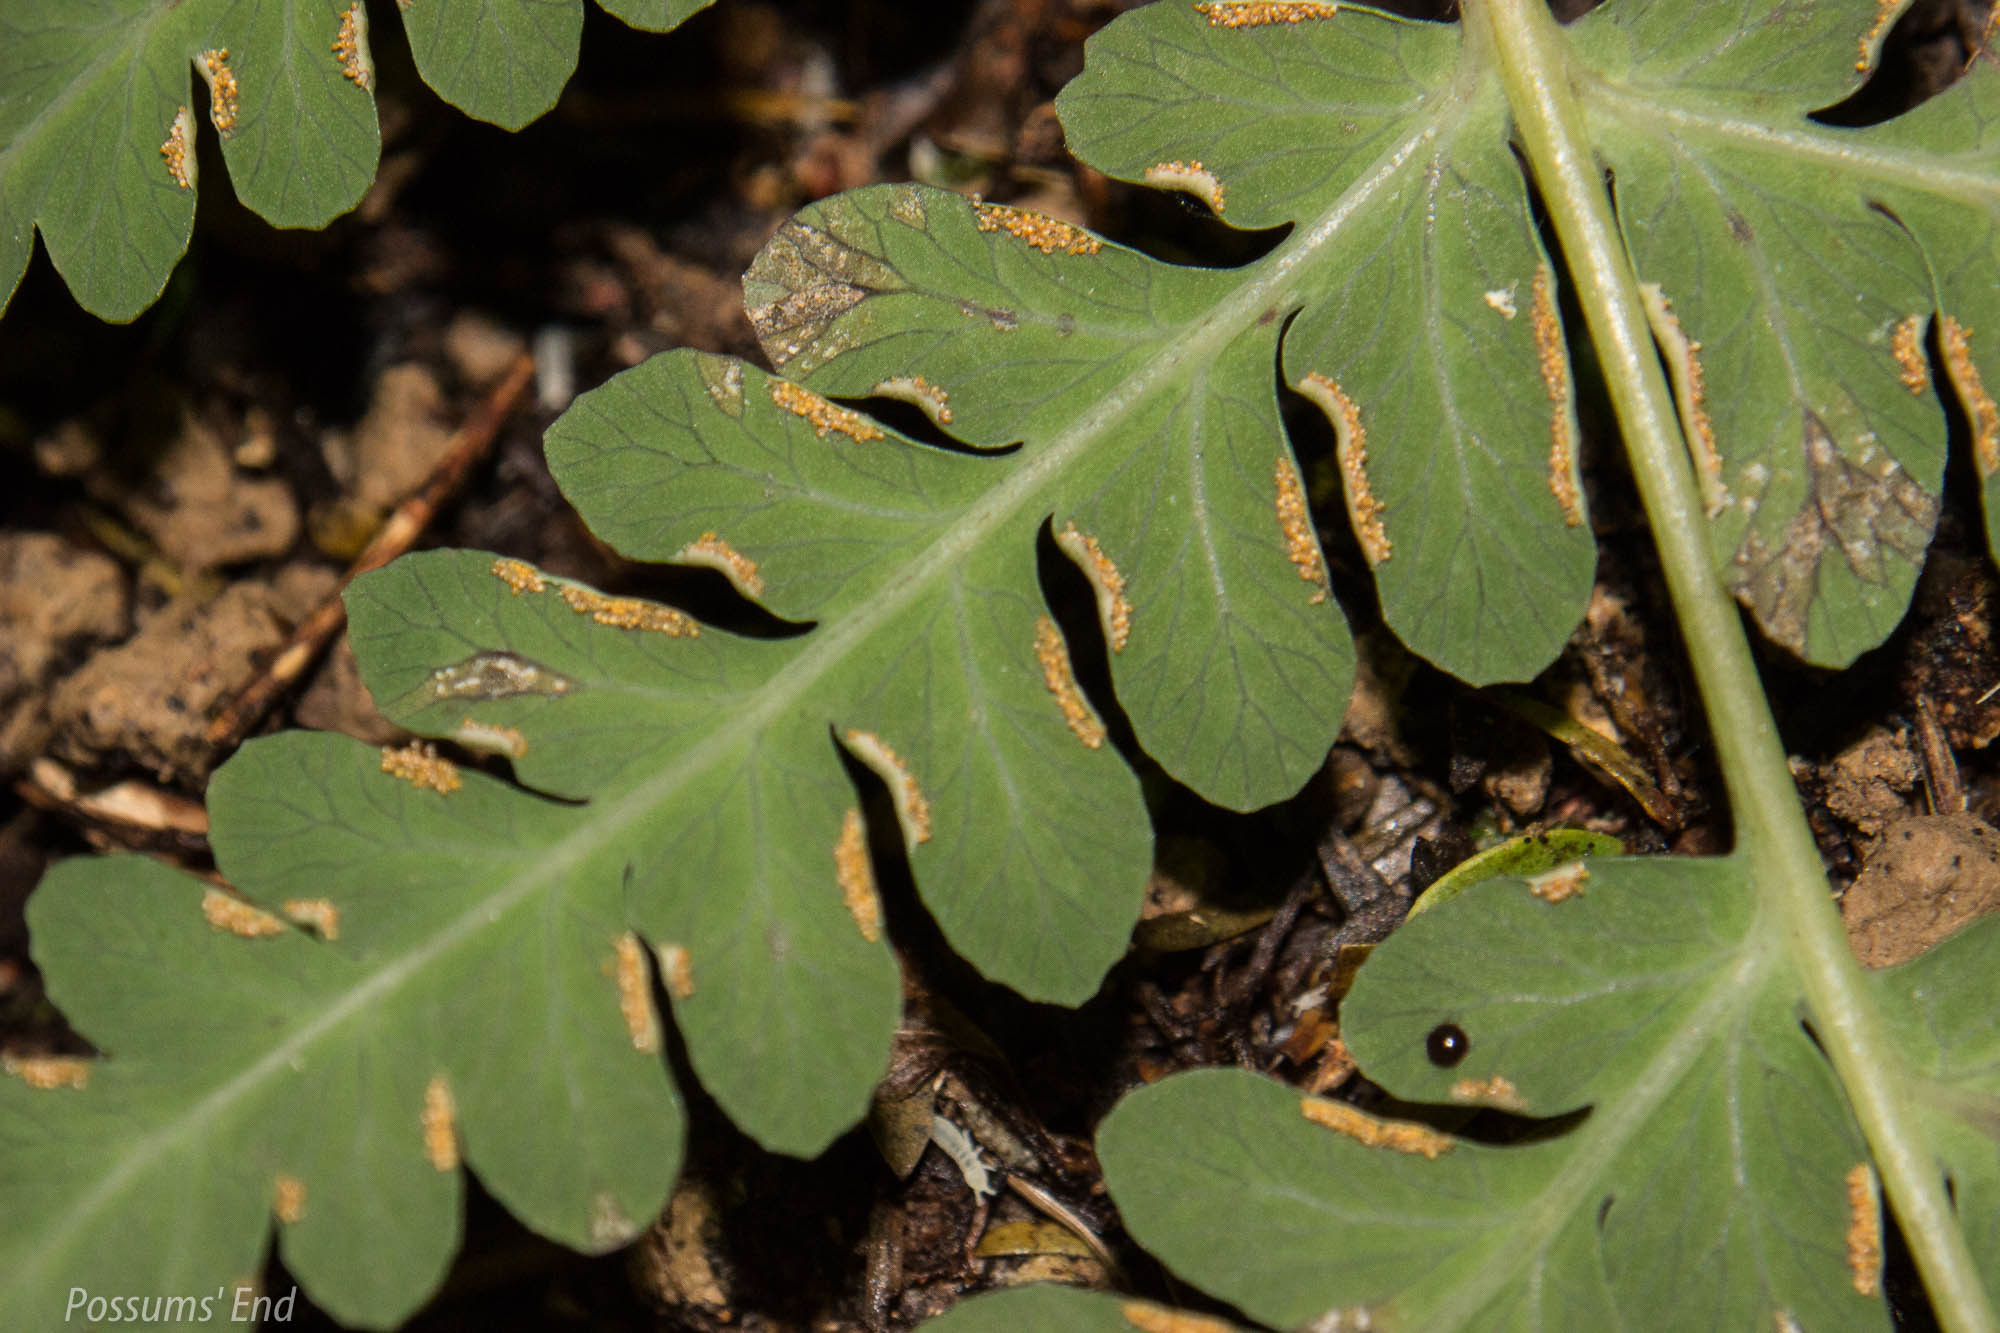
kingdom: Plantae
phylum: Tracheophyta
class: Polypodiopsida
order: Polypodiales
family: Dennstaedtiaceae
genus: Histiopteris
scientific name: Histiopteris incisa
